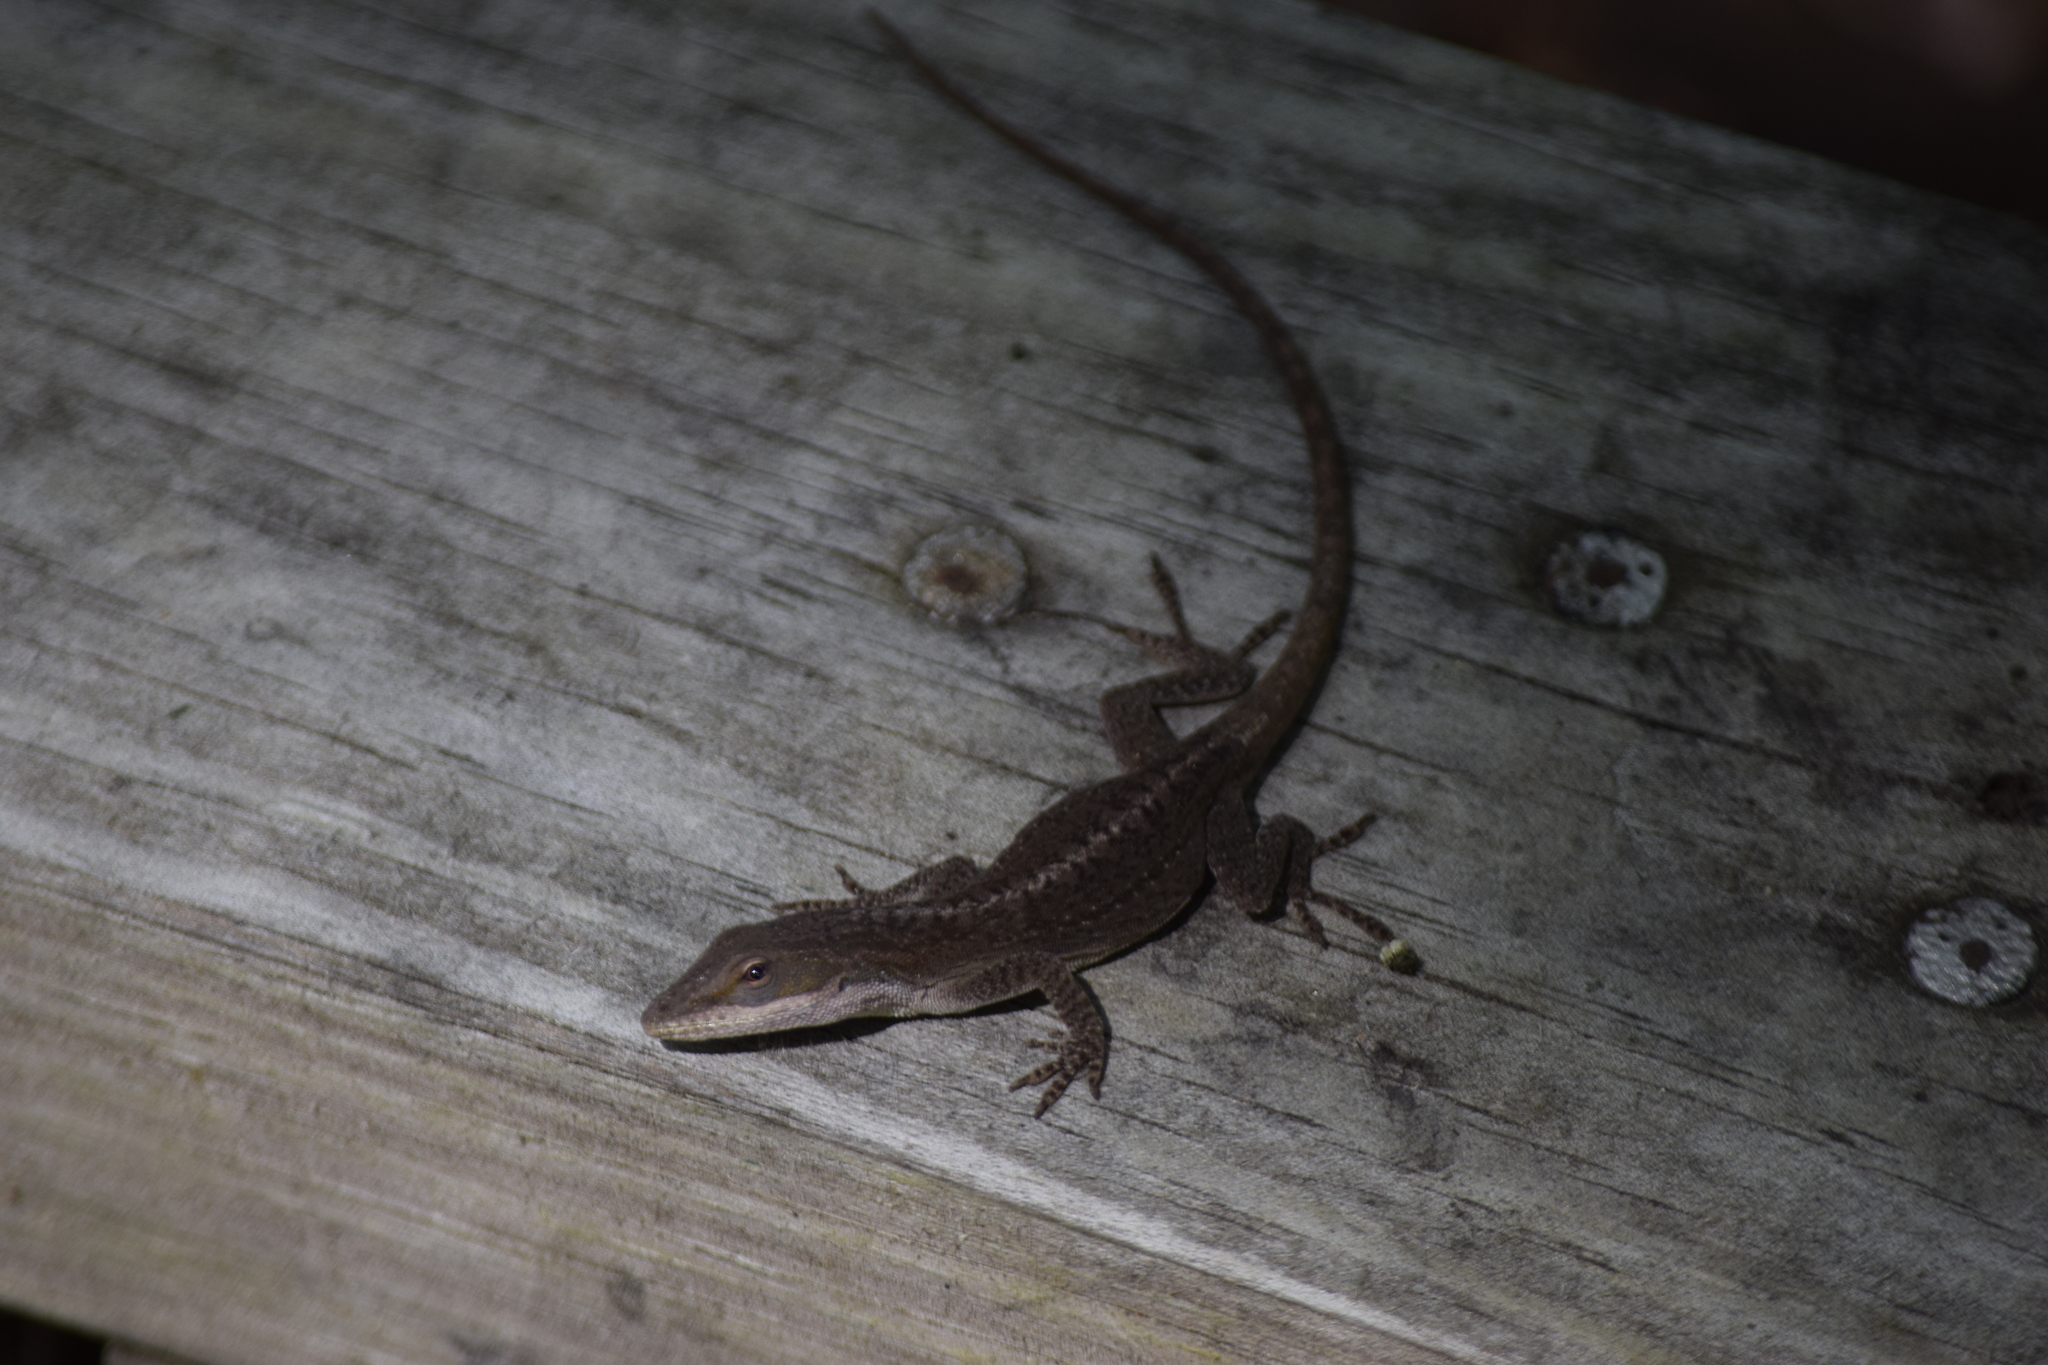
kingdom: Animalia
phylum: Chordata
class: Squamata
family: Dactyloidae
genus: Anolis
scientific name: Anolis carolinensis
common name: Green anole
